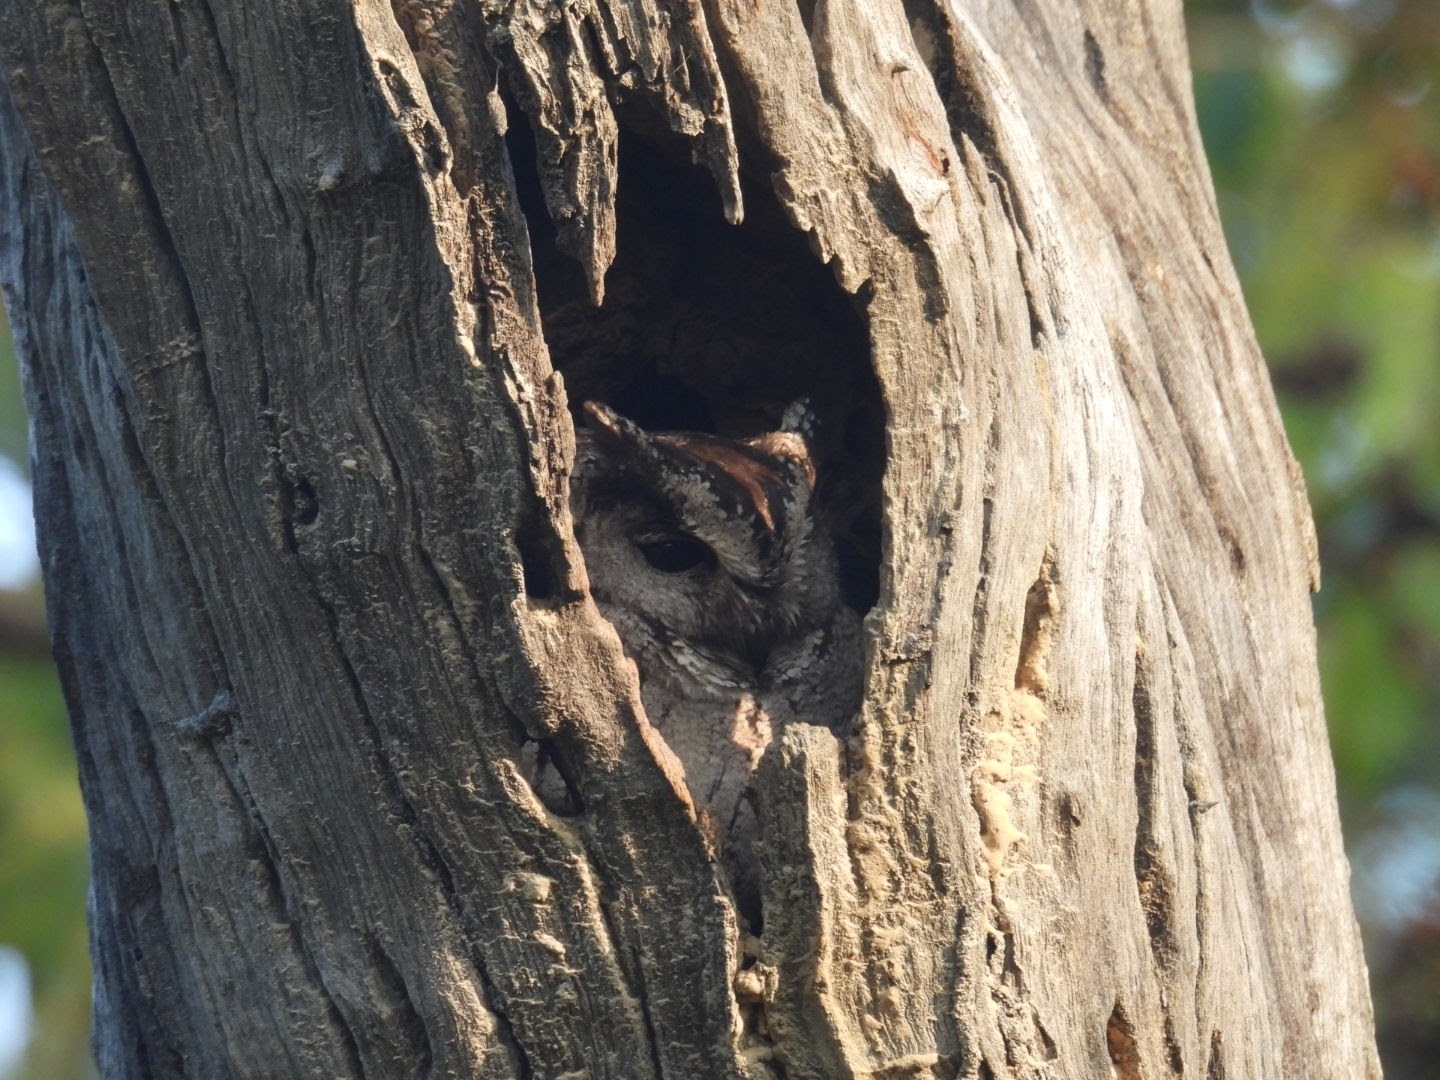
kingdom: Animalia
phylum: Chordata
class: Aves
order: Strigiformes
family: Strigidae
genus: Otus
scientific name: Otus bakkamoena
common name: Indian scops owl
